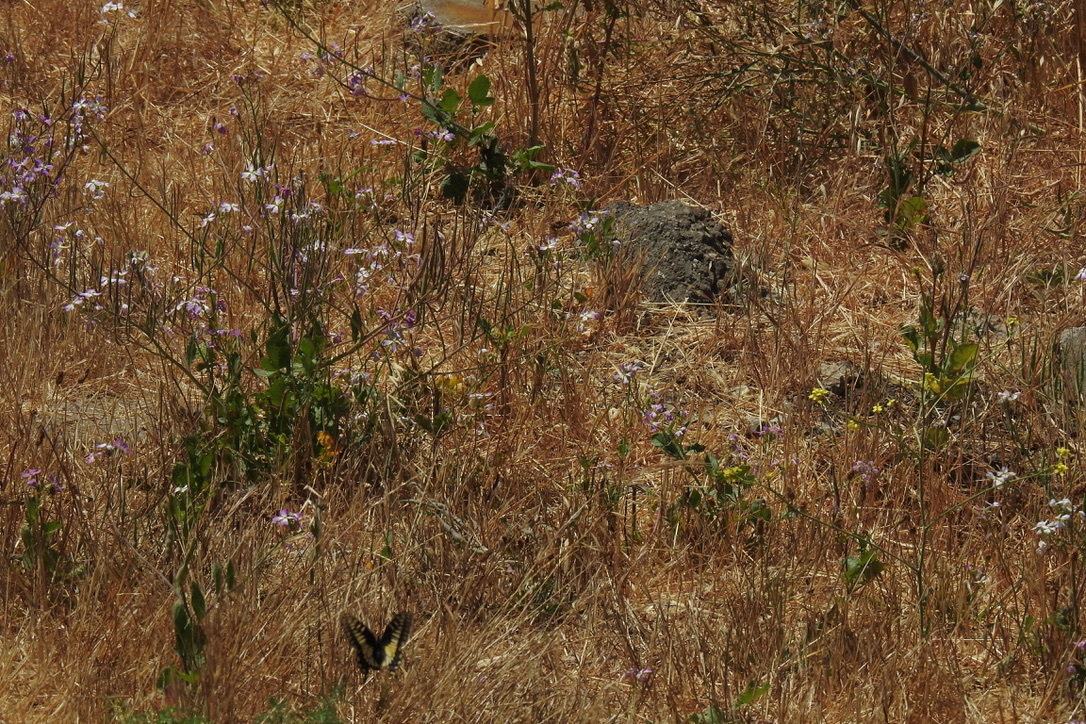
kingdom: Animalia
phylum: Arthropoda
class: Insecta
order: Lepidoptera
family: Papilionidae
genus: Papilio
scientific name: Papilio zelicaon
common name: Anise swallowtail
